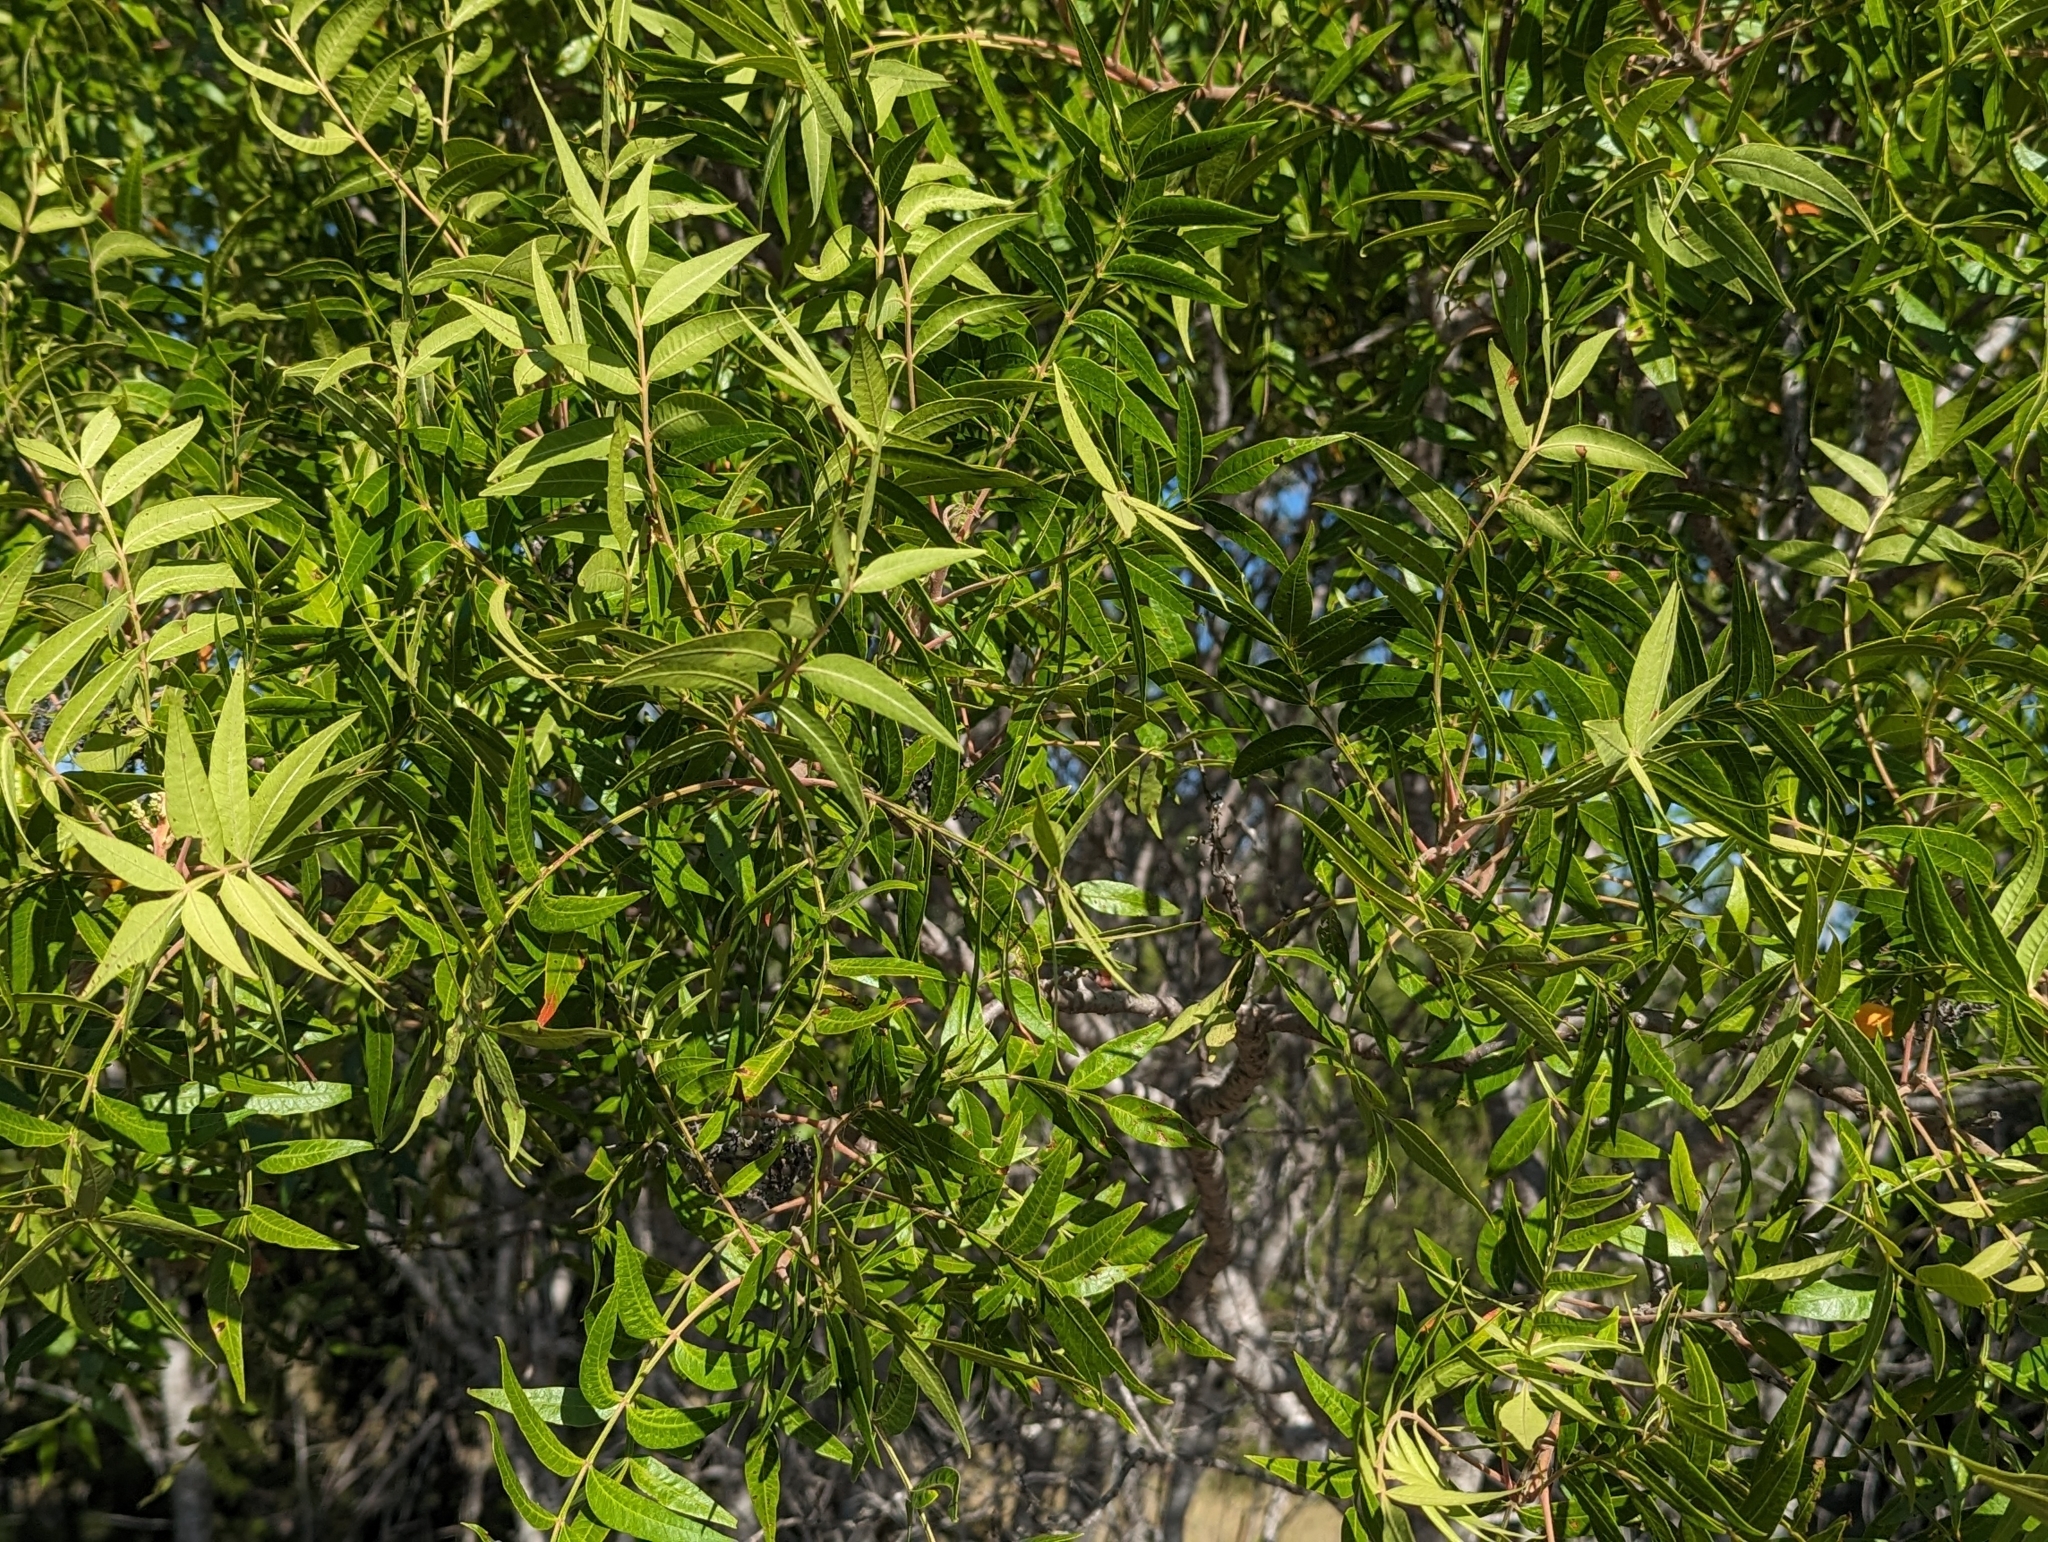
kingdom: Plantae
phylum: Tracheophyta
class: Magnoliopsida
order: Sapindales
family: Anacardiaceae
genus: Rhus
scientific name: Rhus lanceolata
